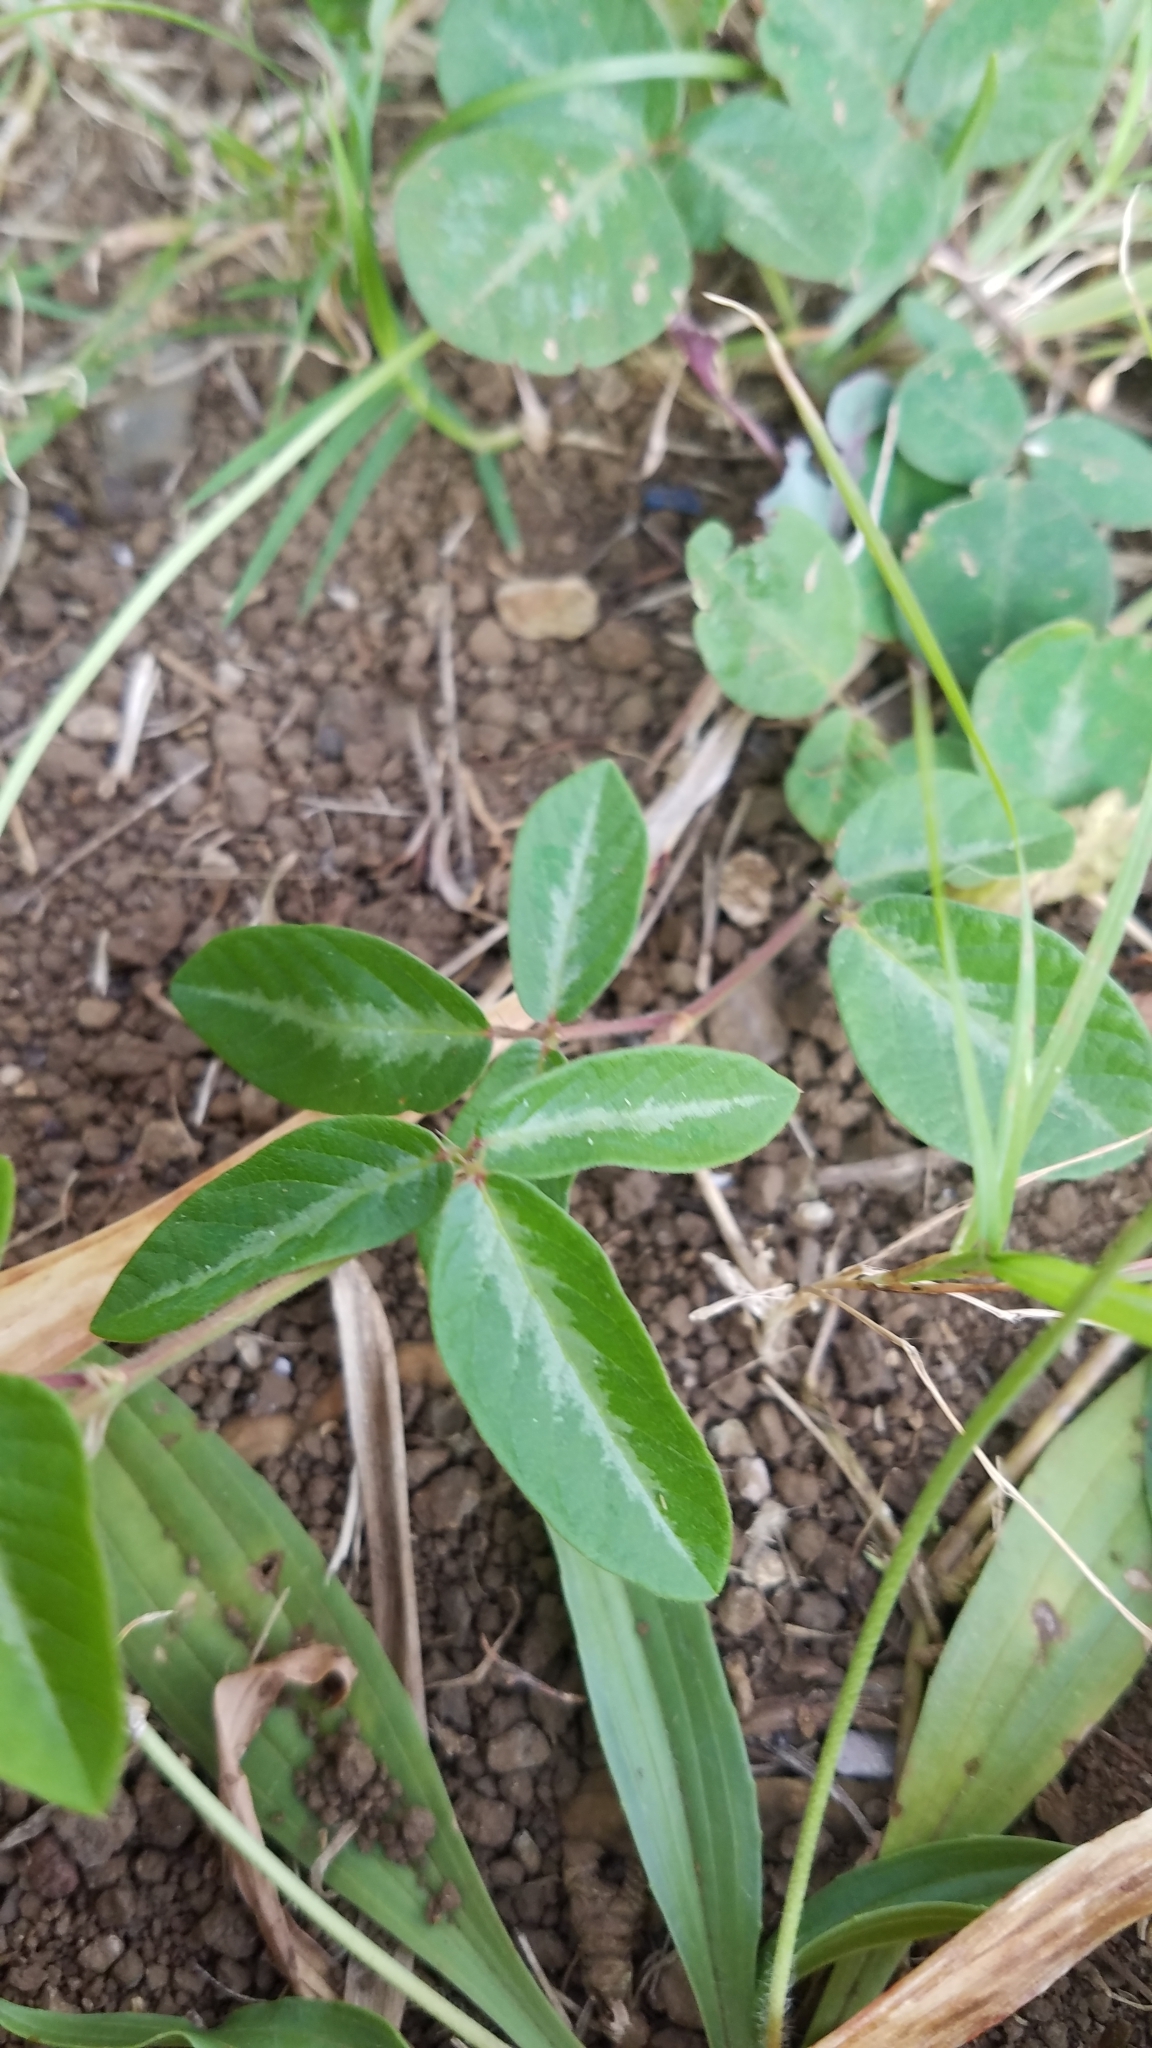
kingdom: Plantae
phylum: Tracheophyta
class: Magnoliopsida
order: Fabales
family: Fabaceae
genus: Desmodium
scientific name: Desmodium incanum
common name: Tickclover
